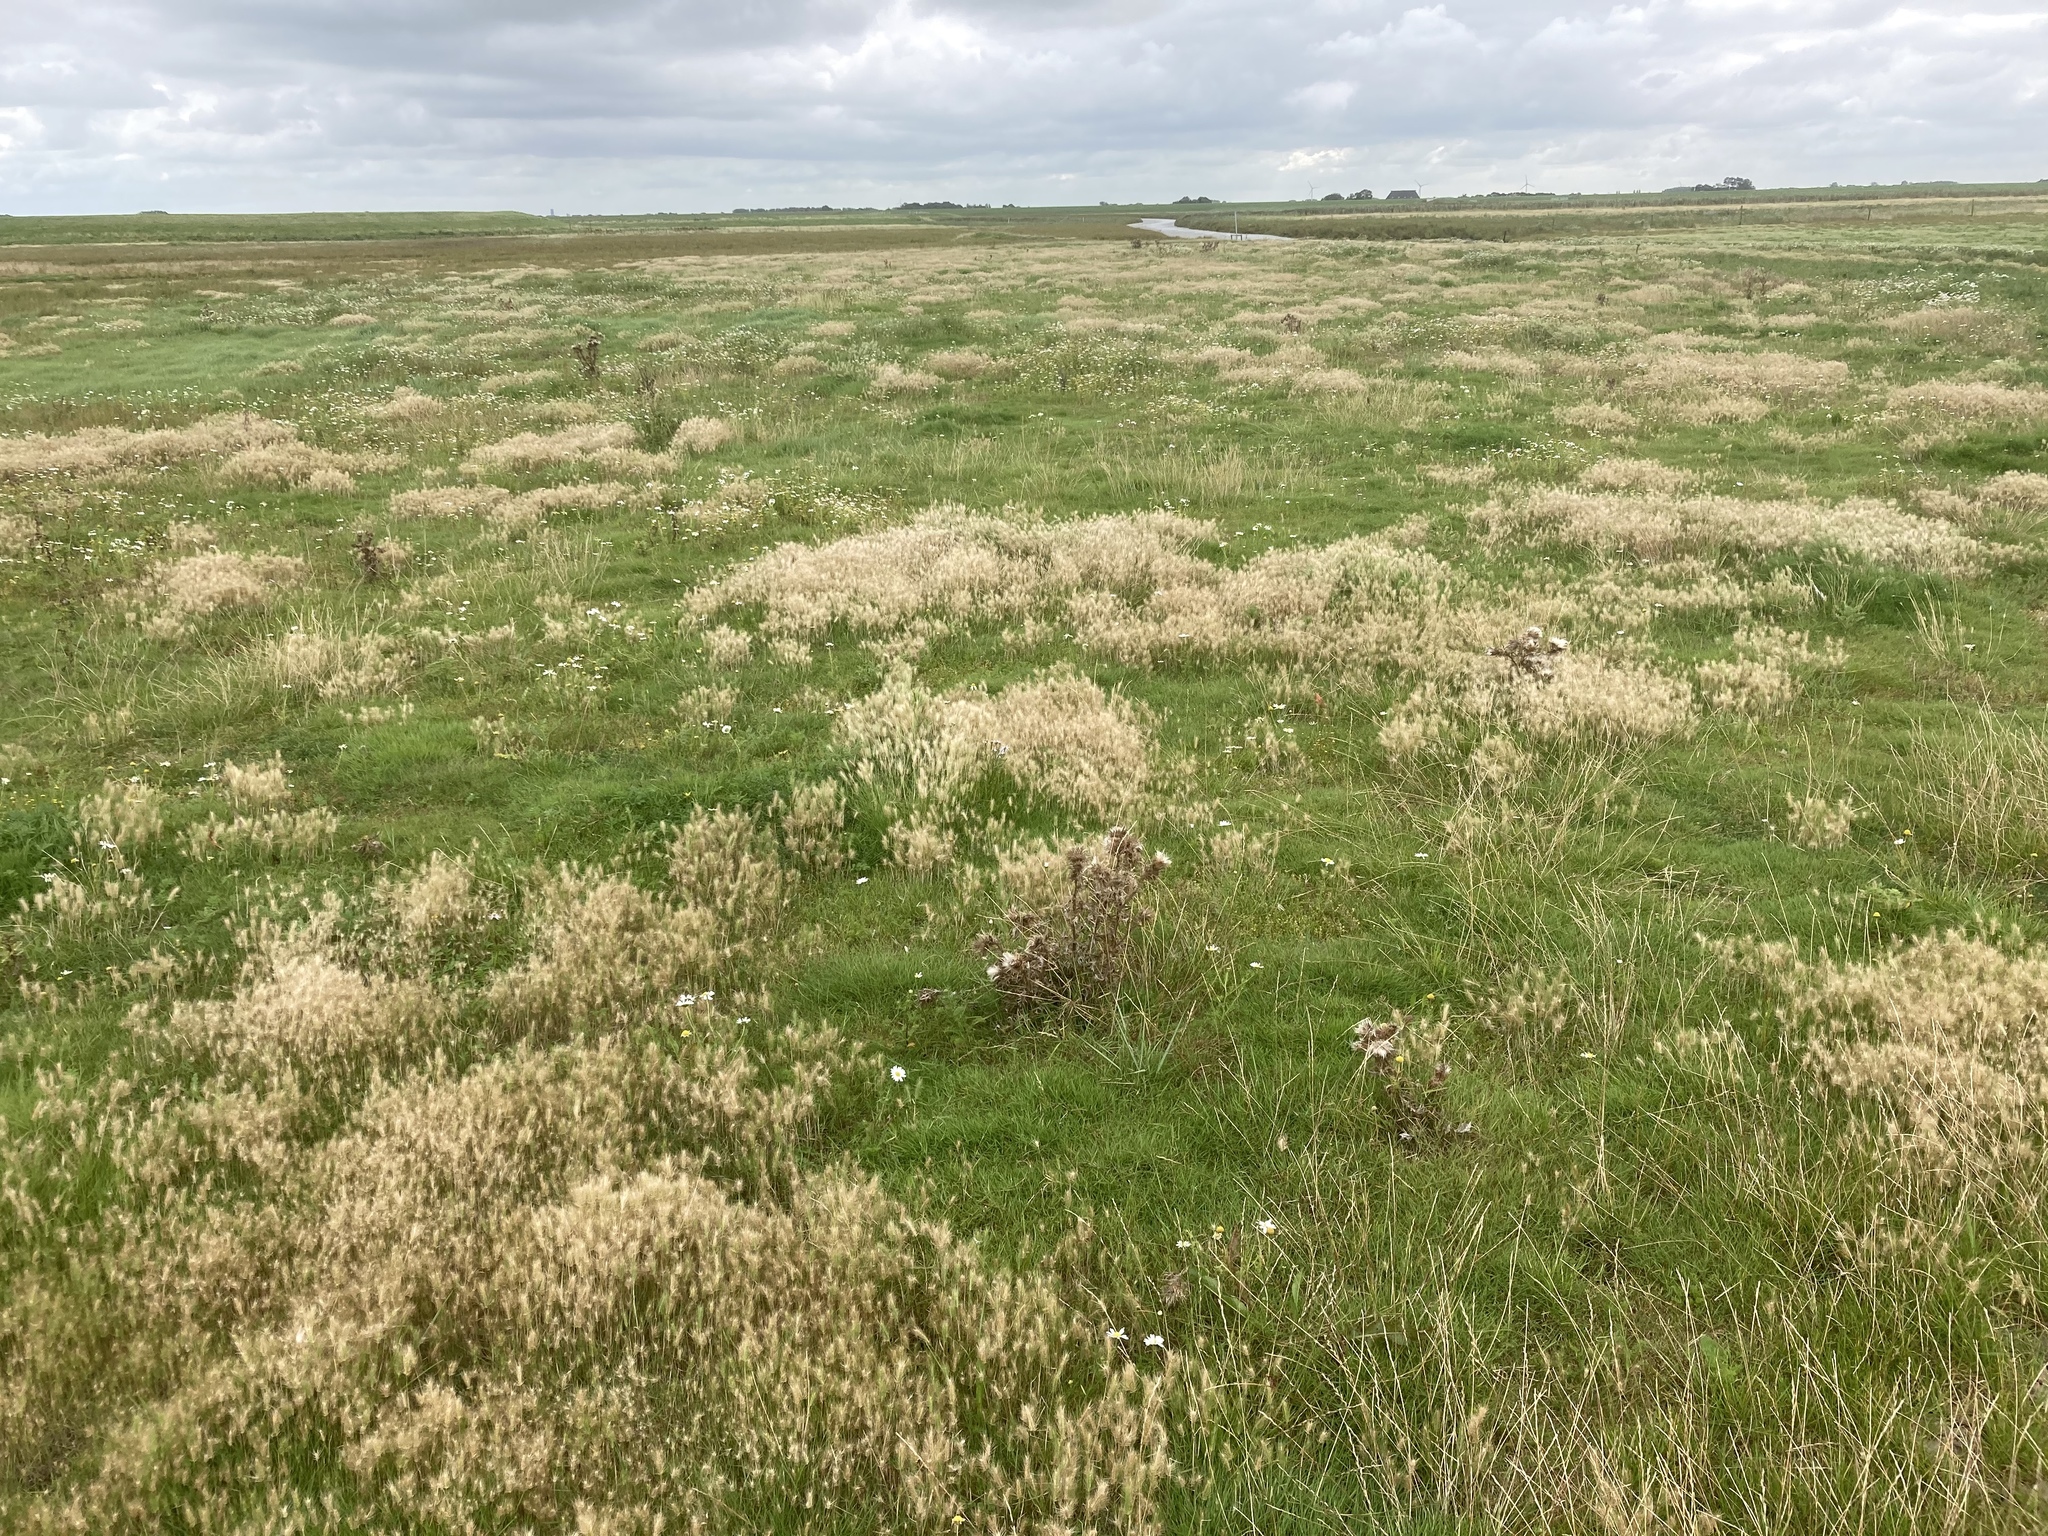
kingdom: Plantae
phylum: Tracheophyta
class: Liliopsida
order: Poales
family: Poaceae
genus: Hordeum
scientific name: Hordeum marinum
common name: Sea barley
